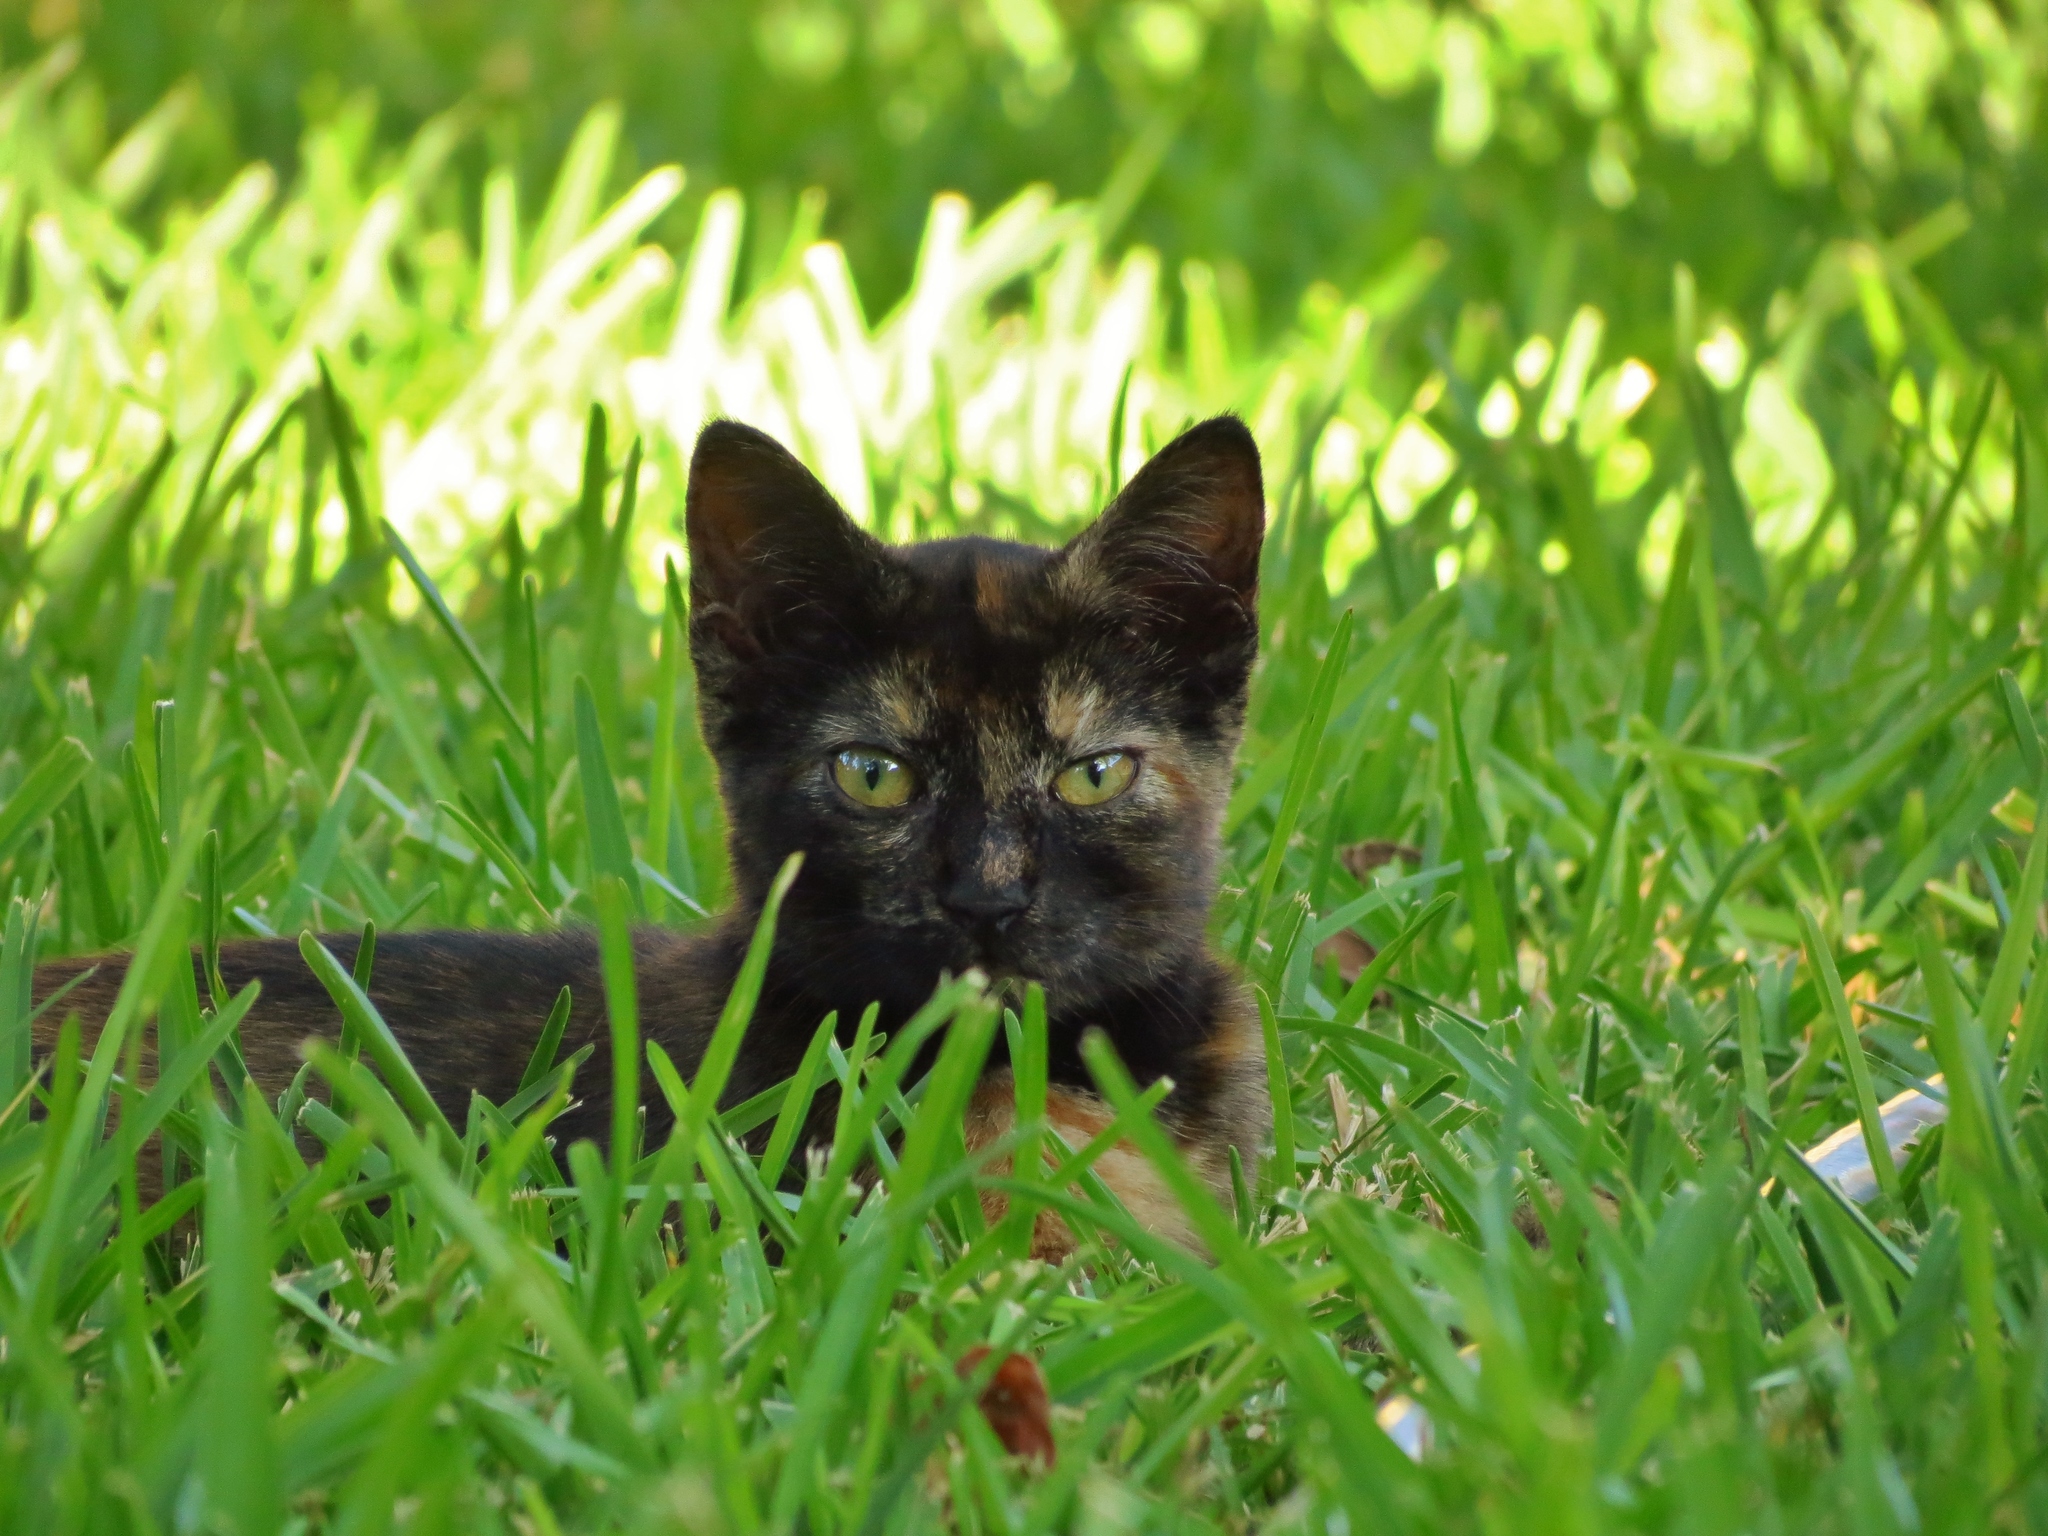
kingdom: Animalia
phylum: Chordata
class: Mammalia
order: Carnivora
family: Felidae
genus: Felis
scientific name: Felis catus
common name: Domestic cat
